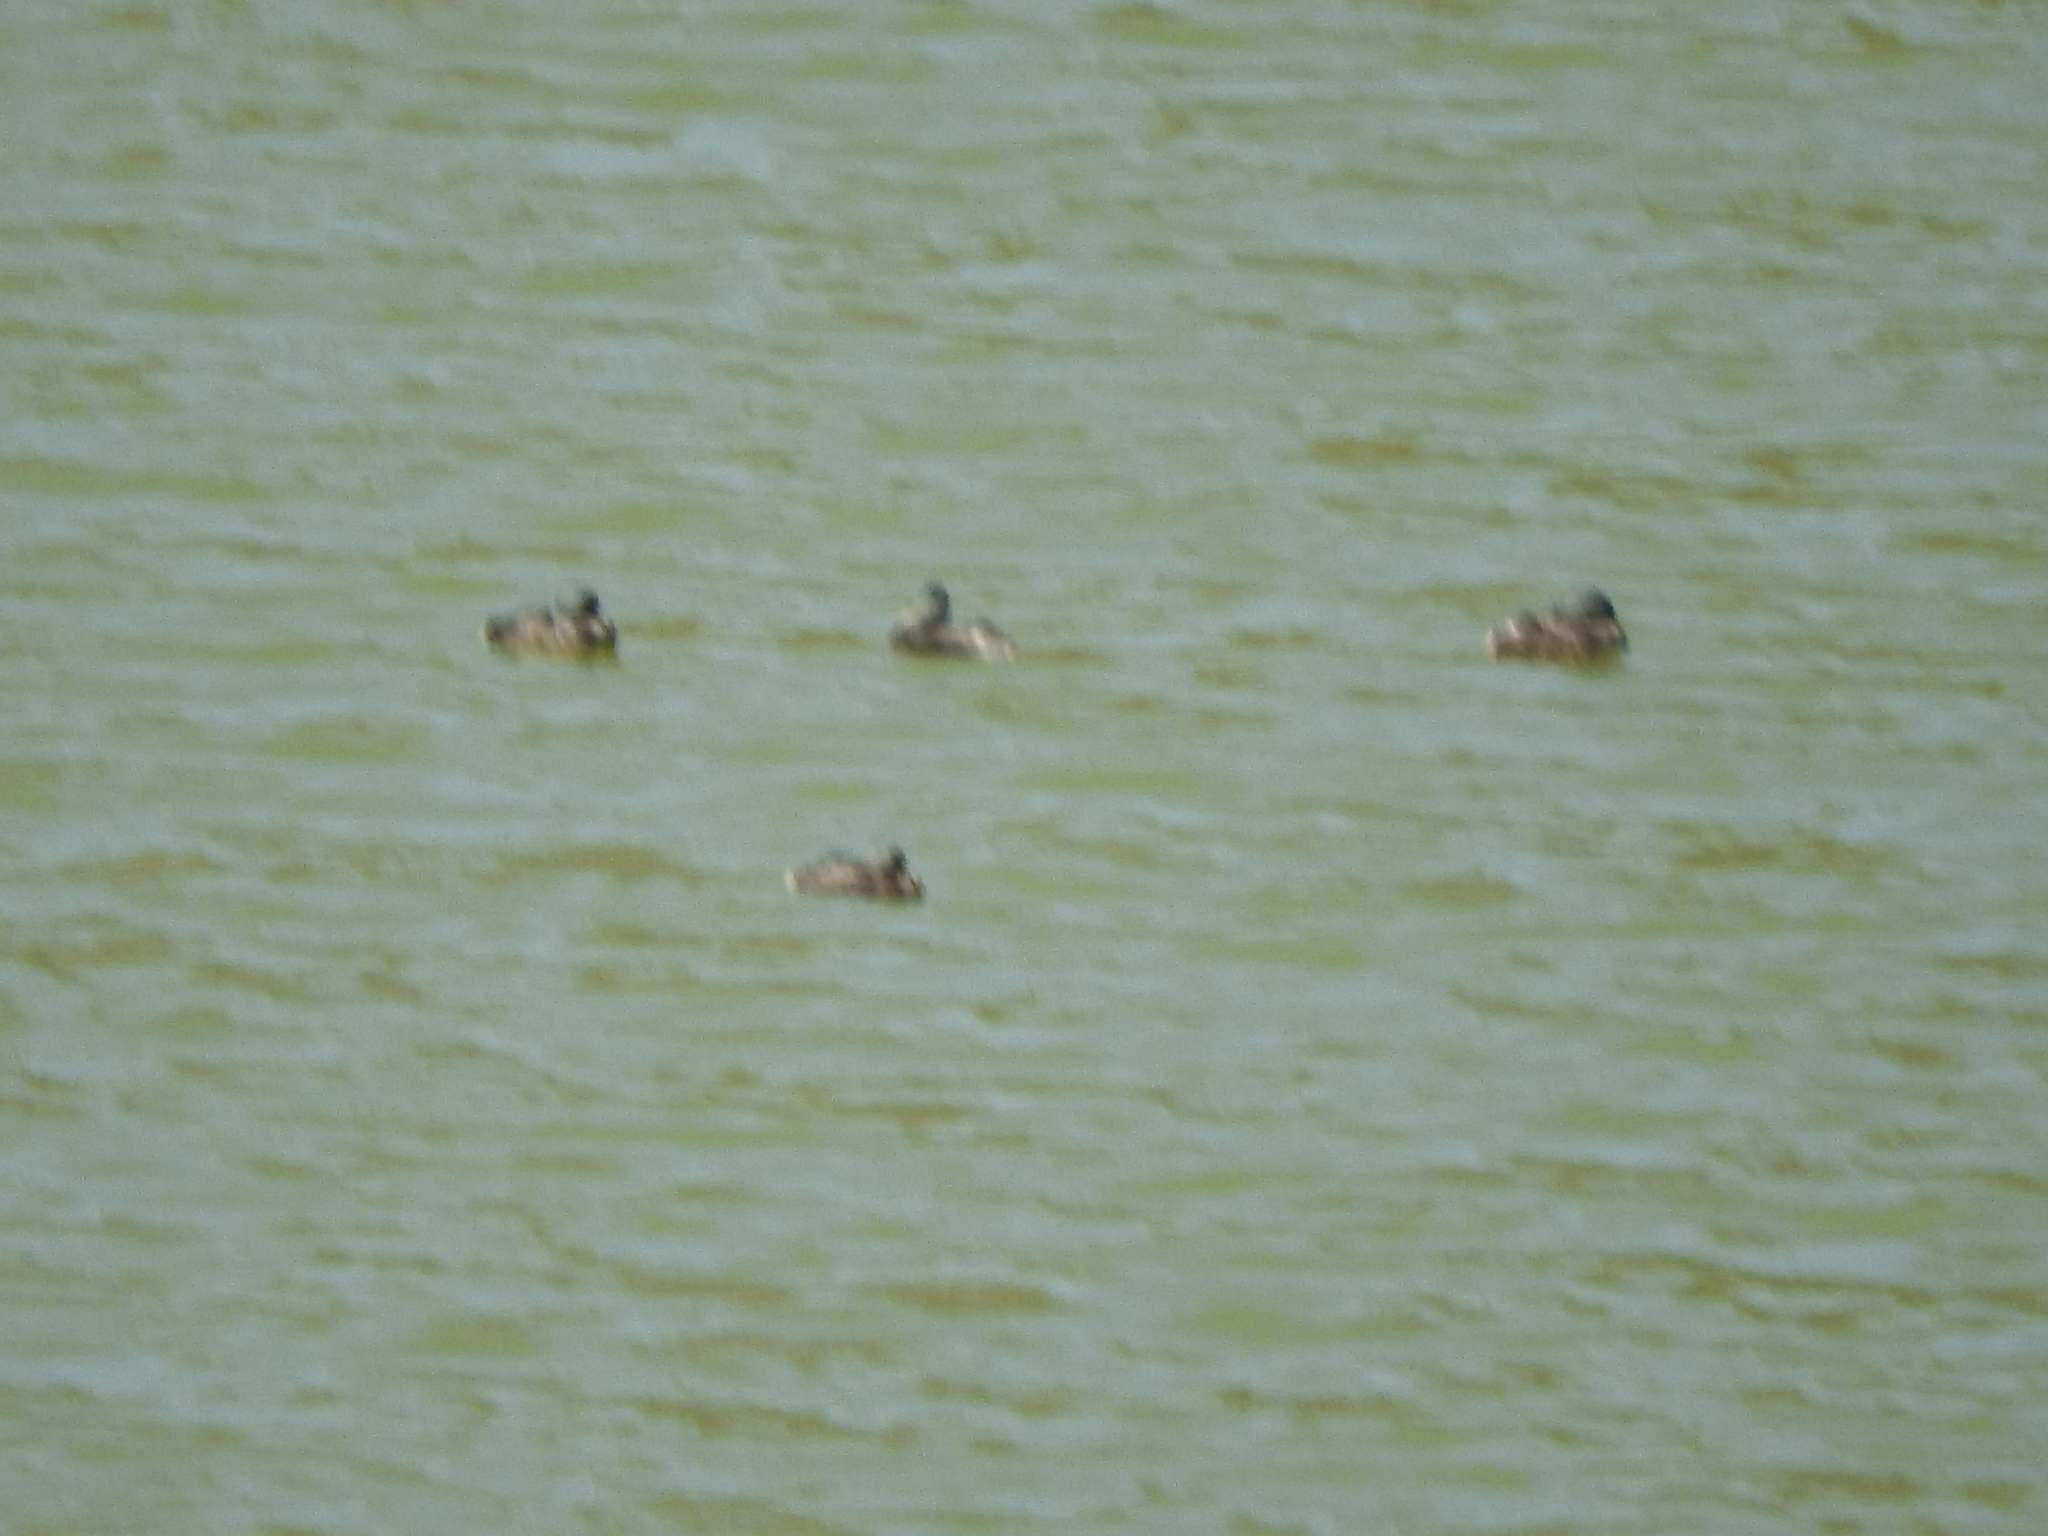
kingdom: Animalia
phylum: Chordata
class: Aves
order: Anseriformes
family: Anatidae
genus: Mareca
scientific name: Mareca strepera
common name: Gadwall
